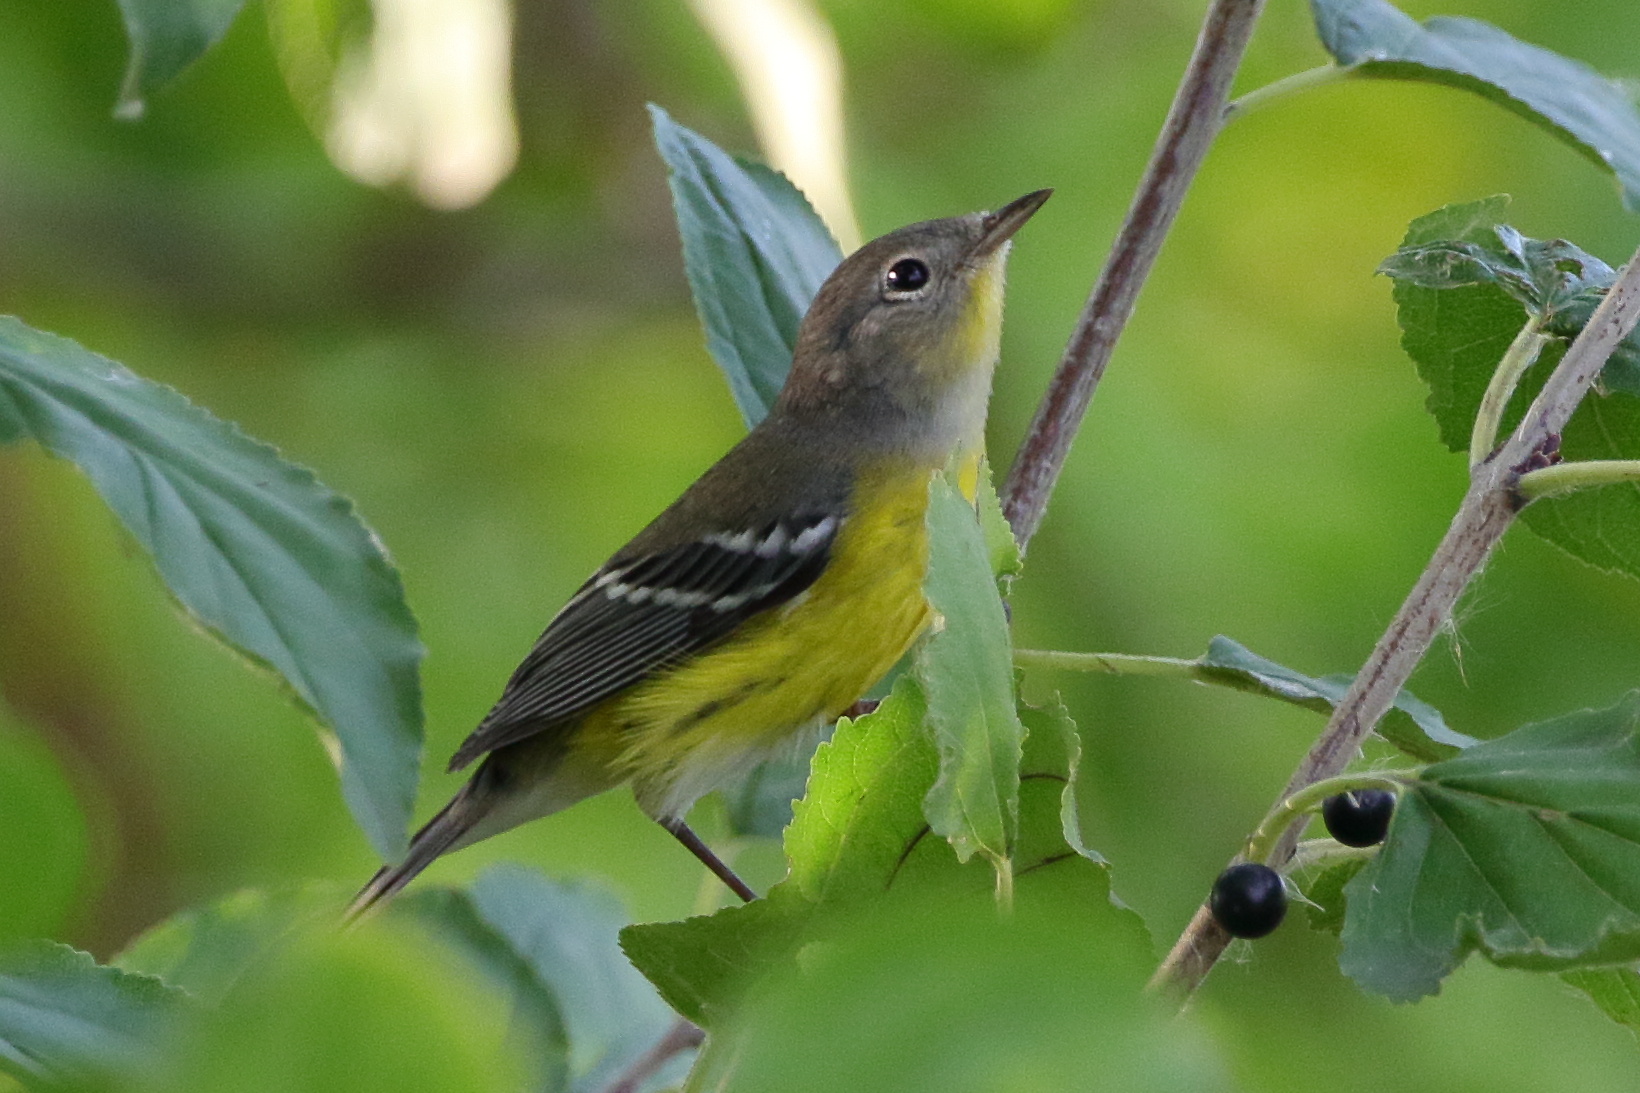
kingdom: Animalia
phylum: Chordata
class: Aves
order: Passeriformes
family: Parulidae
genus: Setophaga
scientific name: Setophaga magnolia
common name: Magnolia warbler
